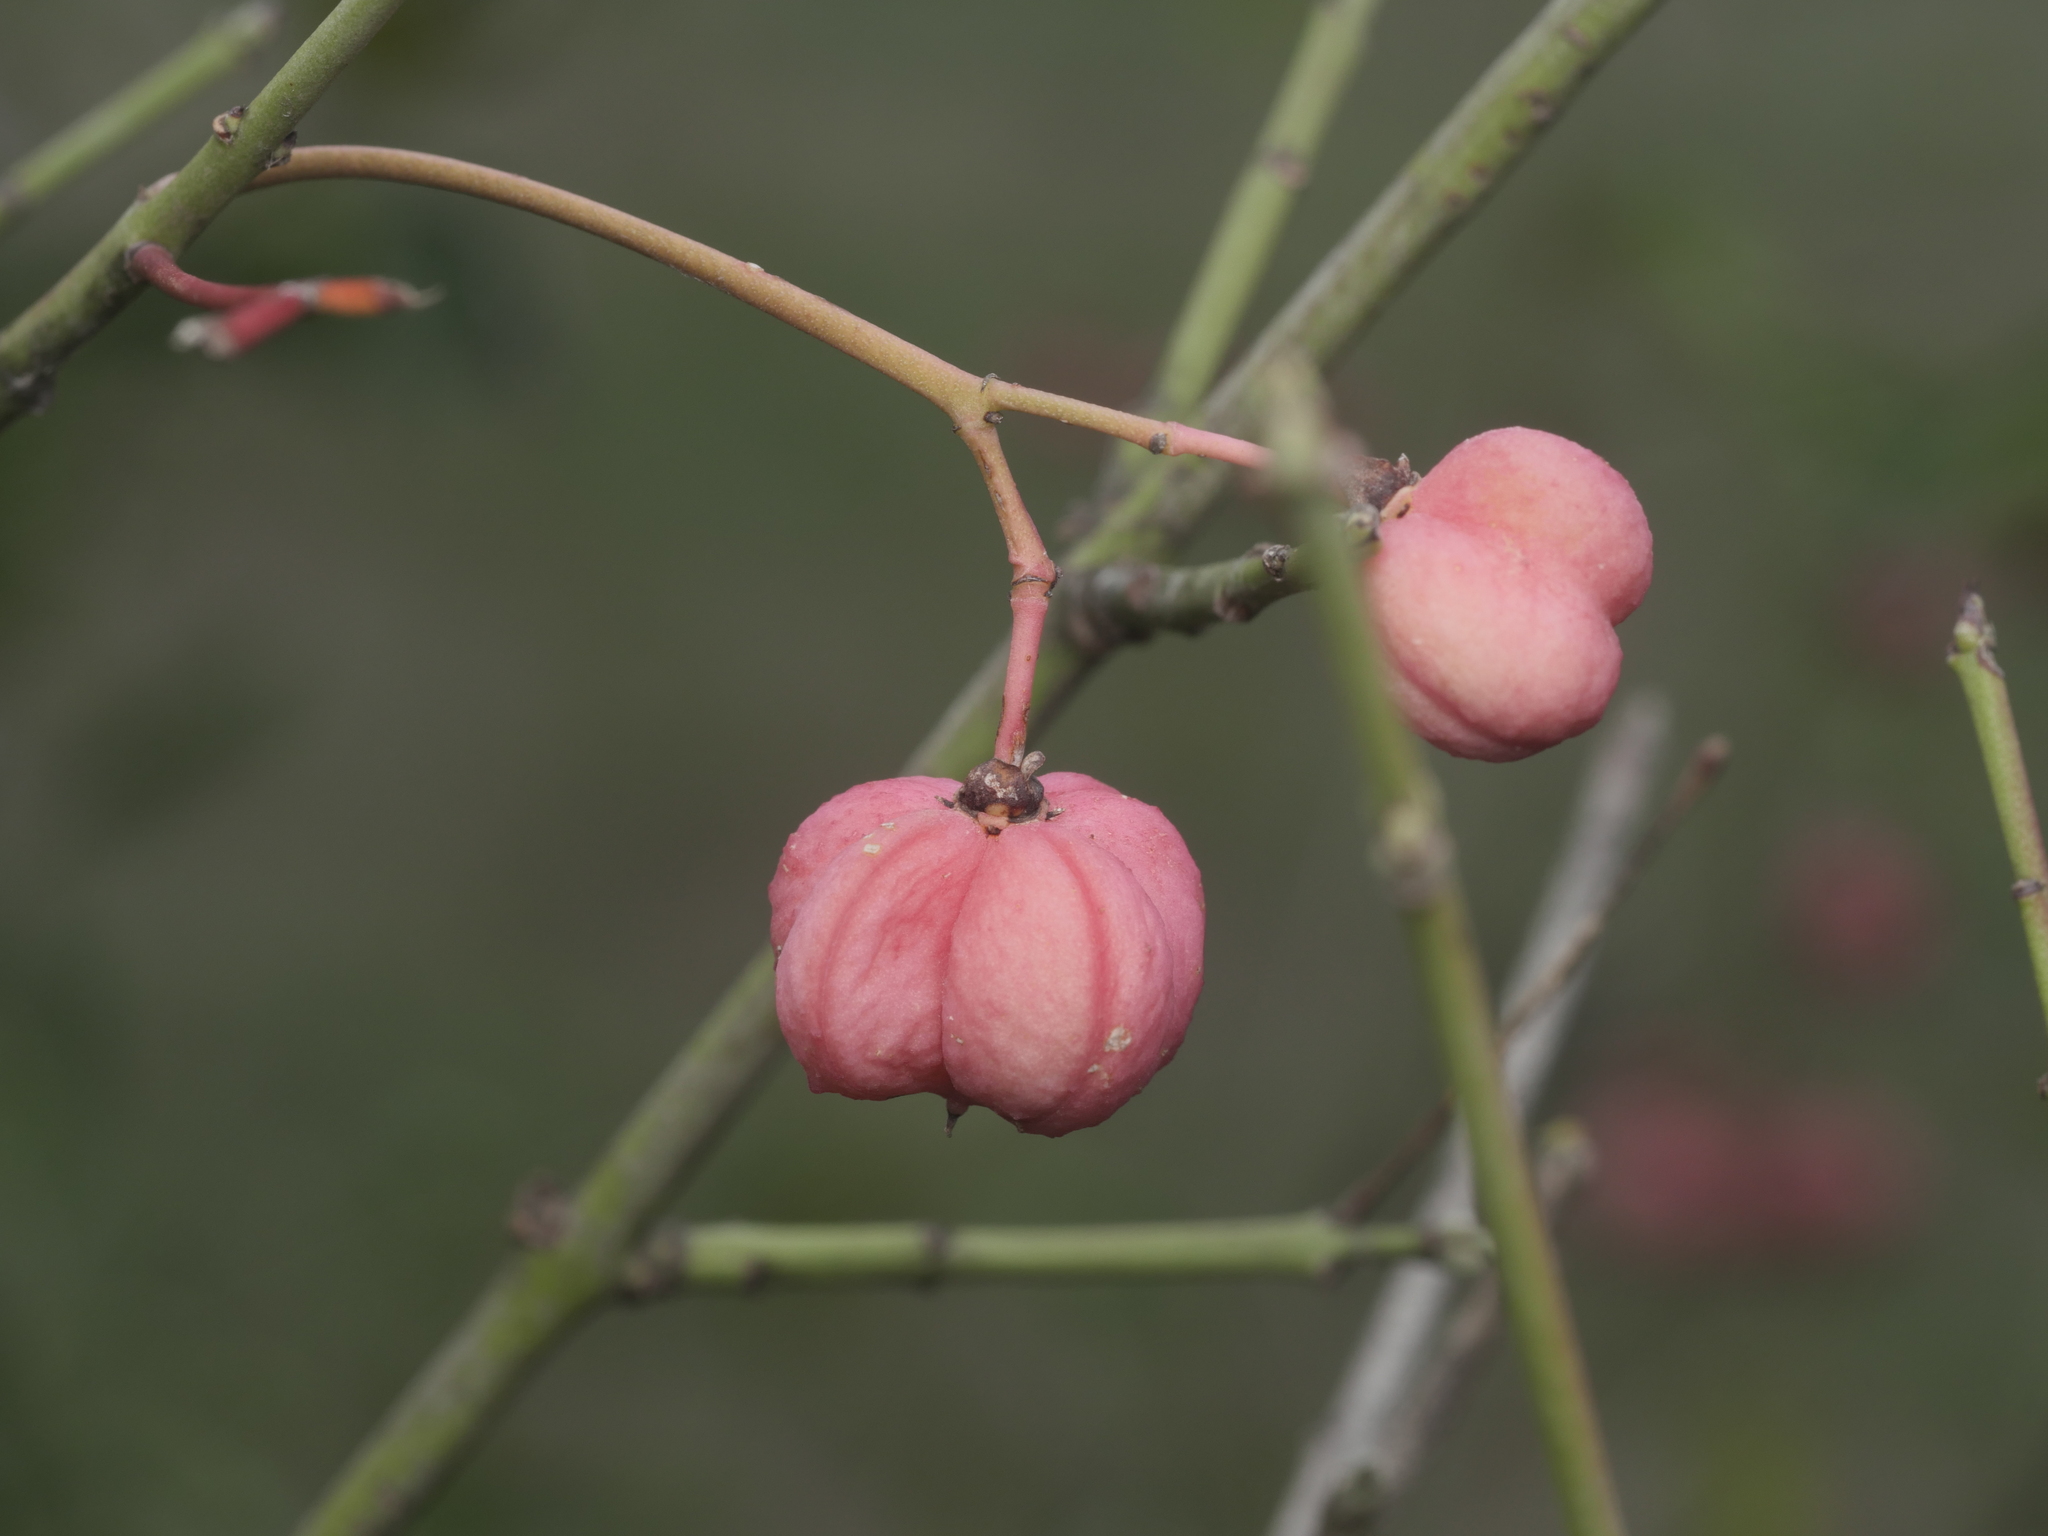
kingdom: Plantae
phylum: Tracheophyta
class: Magnoliopsida
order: Celastrales
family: Celastraceae
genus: Euonymus
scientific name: Euonymus europaeus
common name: Spindle
